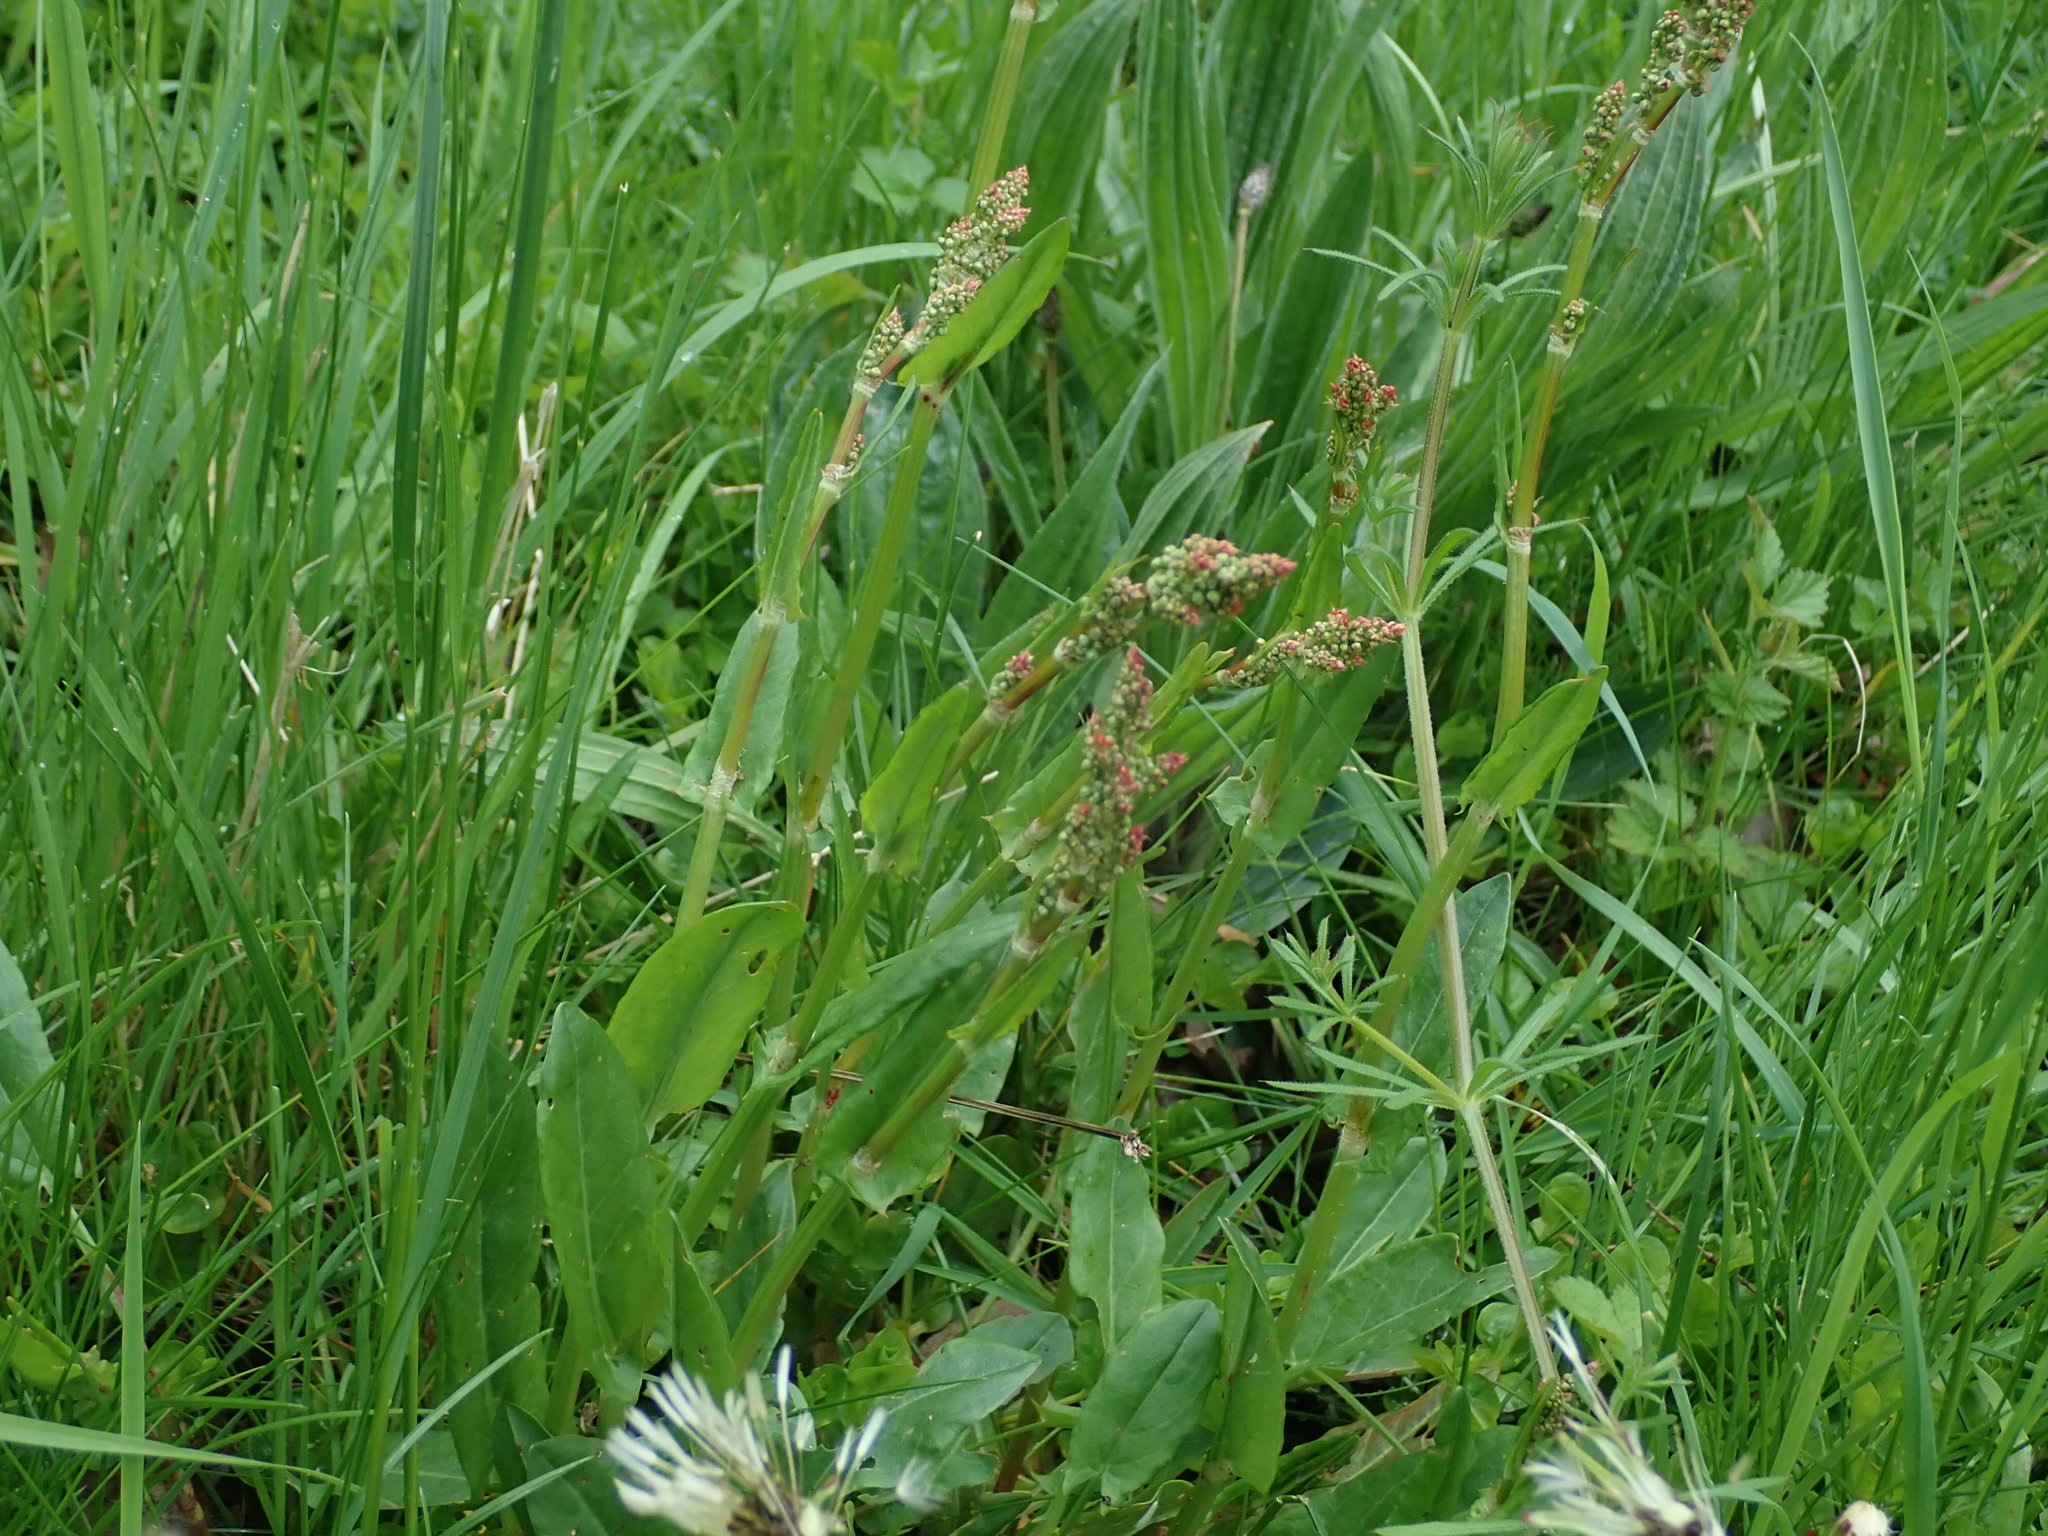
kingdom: Plantae
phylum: Tracheophyta
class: Magnoliopsida
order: Caryophyllales
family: Polygonaceae
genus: Rumex
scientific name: Rumex acetosa
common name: Garden sorrel
